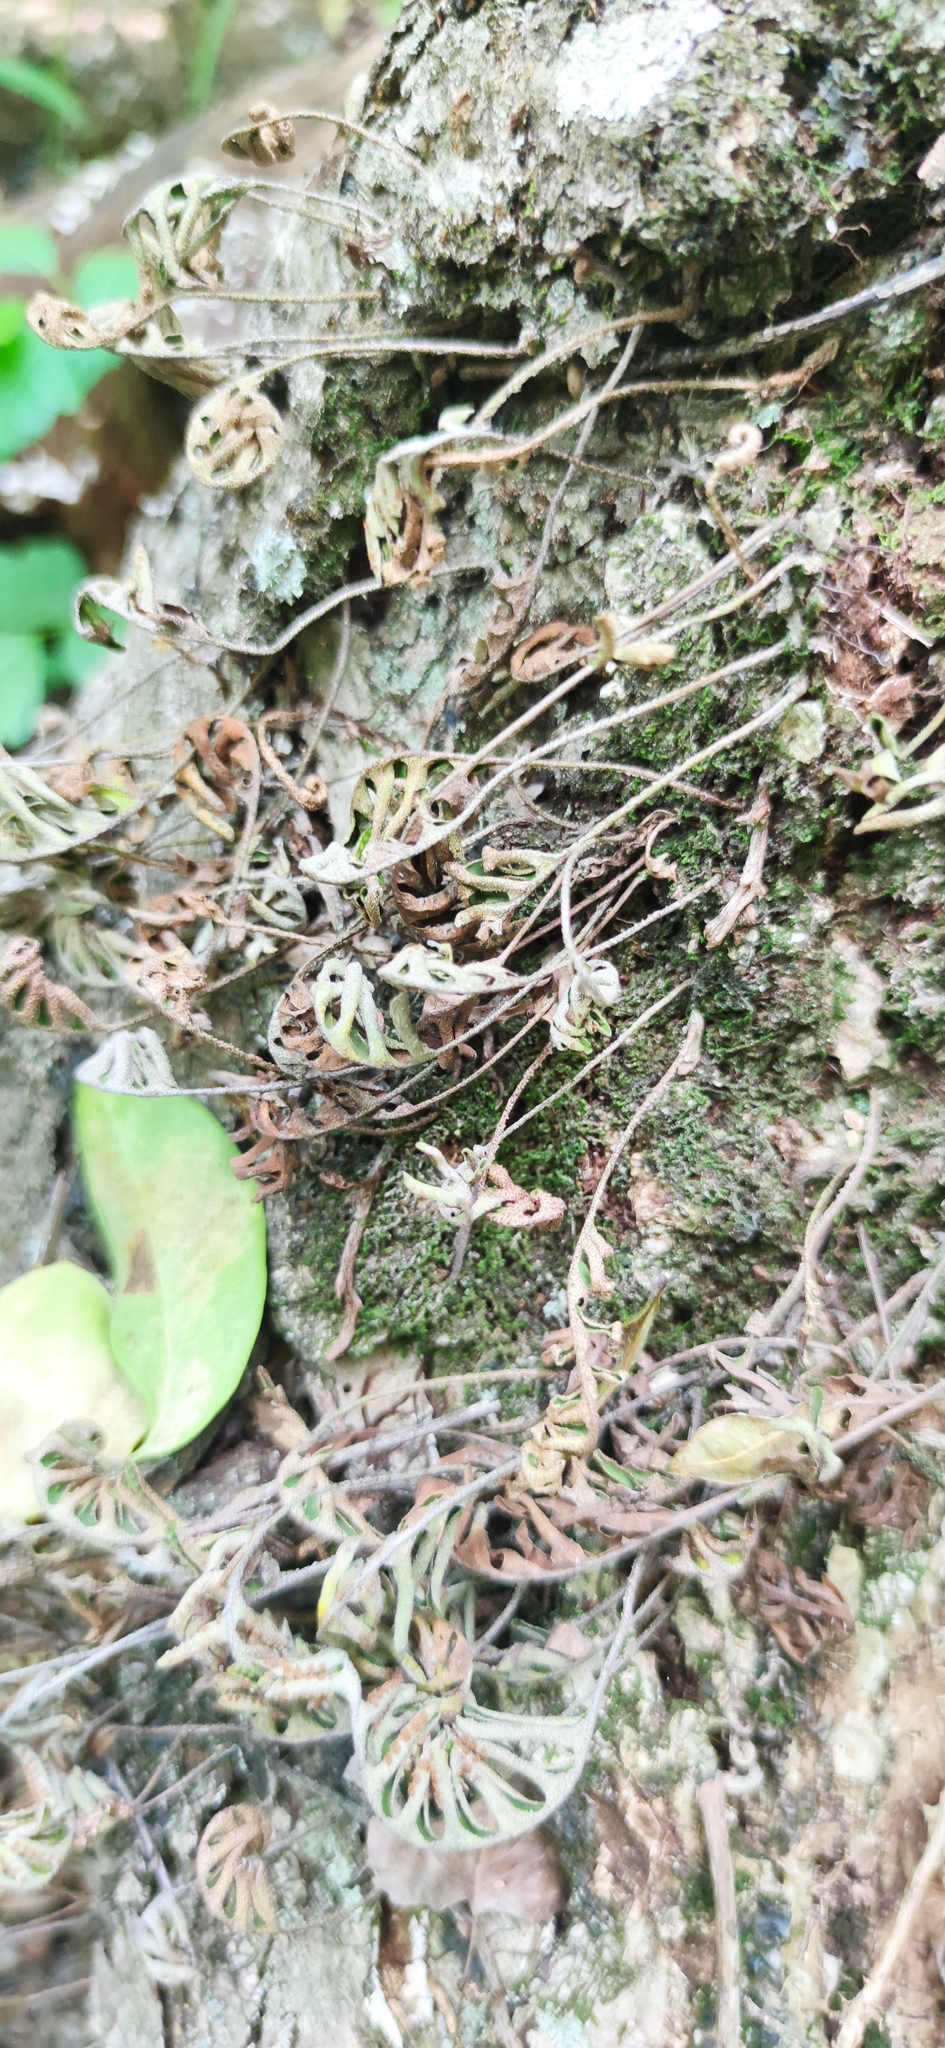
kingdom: Plantae
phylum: Tracheophyta
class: Polypodiopsida
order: Polypodiales
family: Polypodiaceae
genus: Pleopeltis
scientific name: Pleopeltis michauxiana
